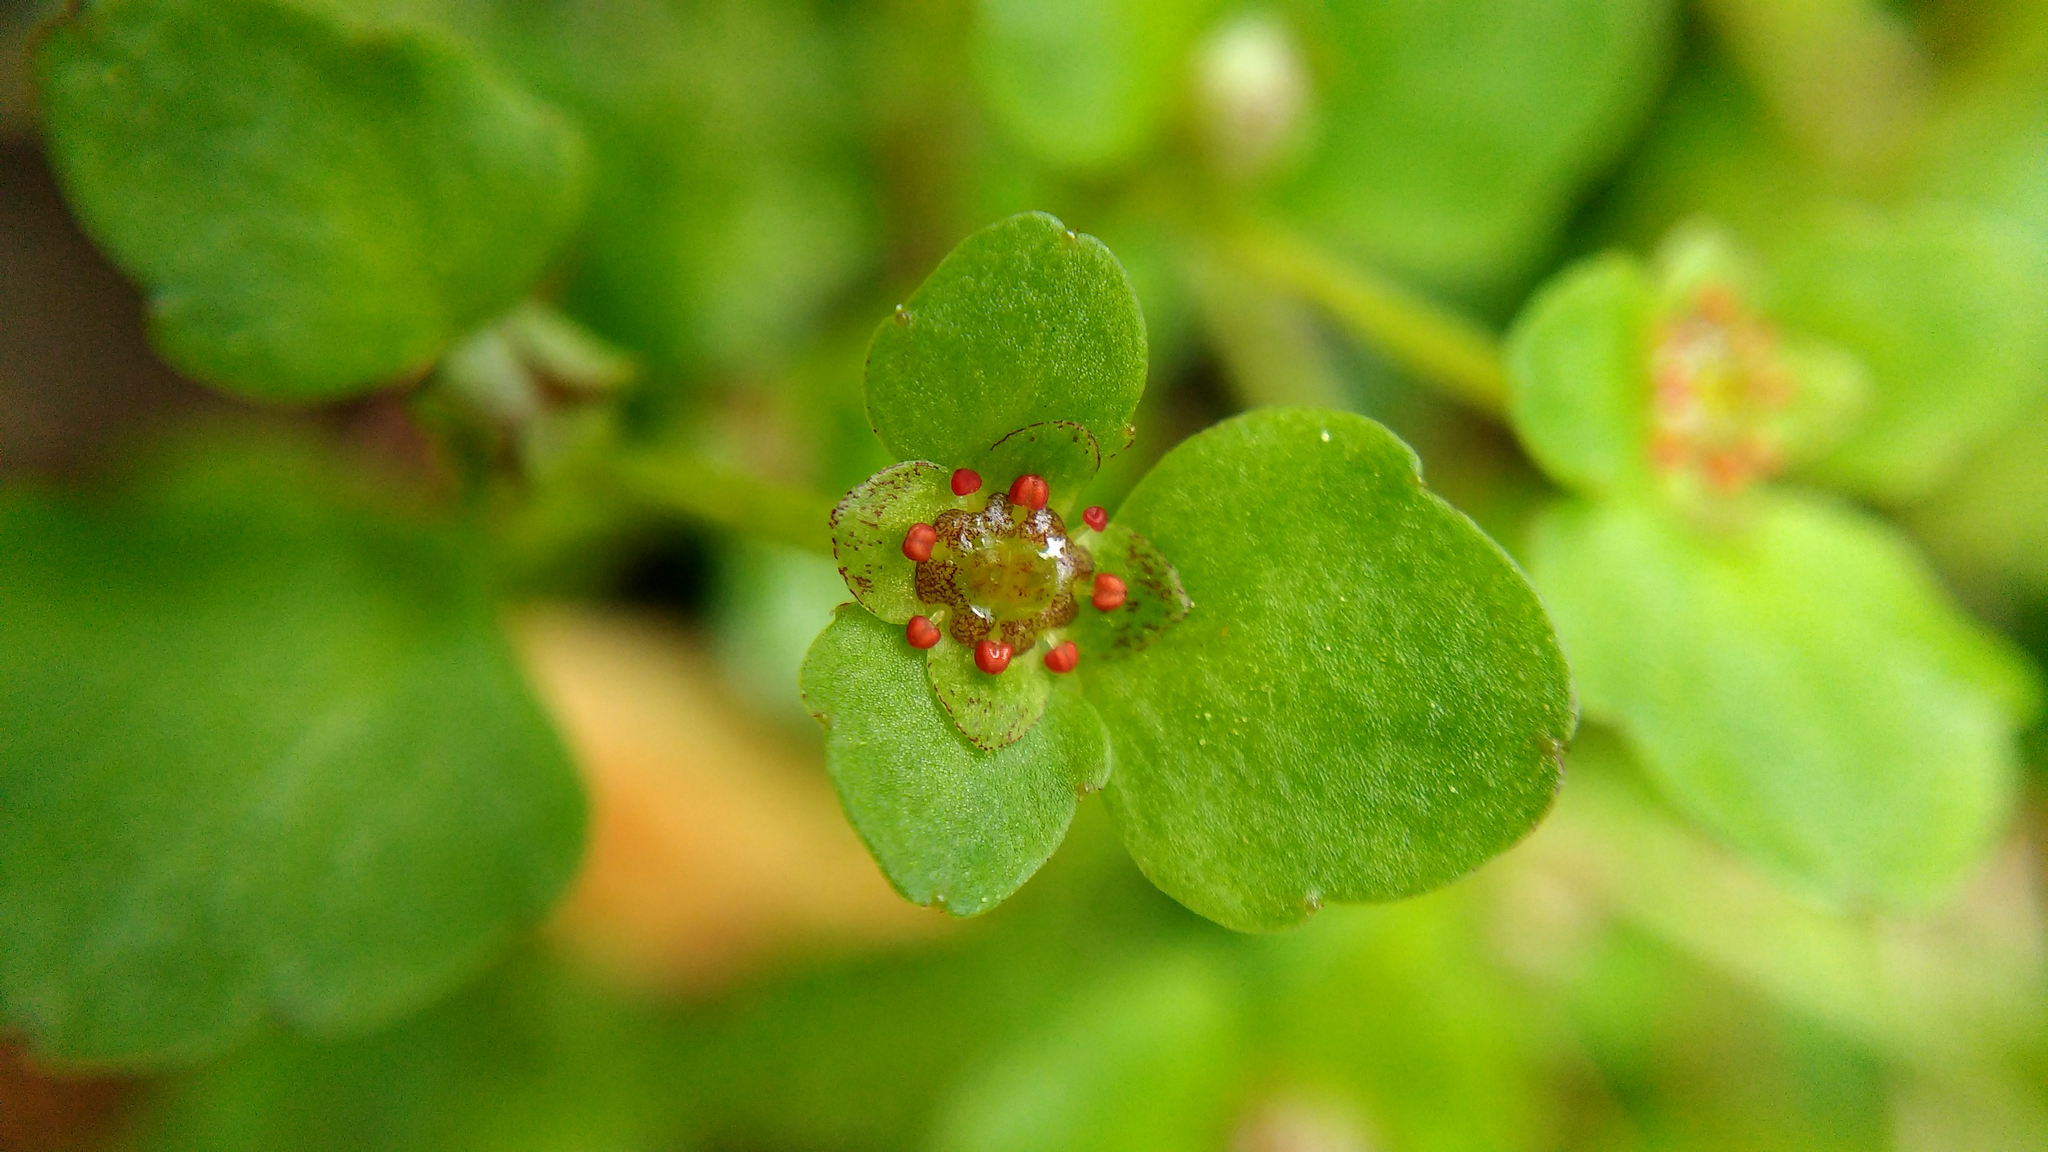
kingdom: Plantae
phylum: Tracheophyta
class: Magnoliopsida
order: Saxifragales
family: Saxifragaceae
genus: Chrysosplenium
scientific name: Chrysosplenium americanum
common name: American golden-saxifrage
